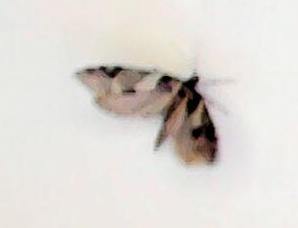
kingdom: Animalia
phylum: Arthropoda
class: Insecta
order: Lepidoptera
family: Psychidae
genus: Lepidoscia
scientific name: Lepidoscia heliochares
